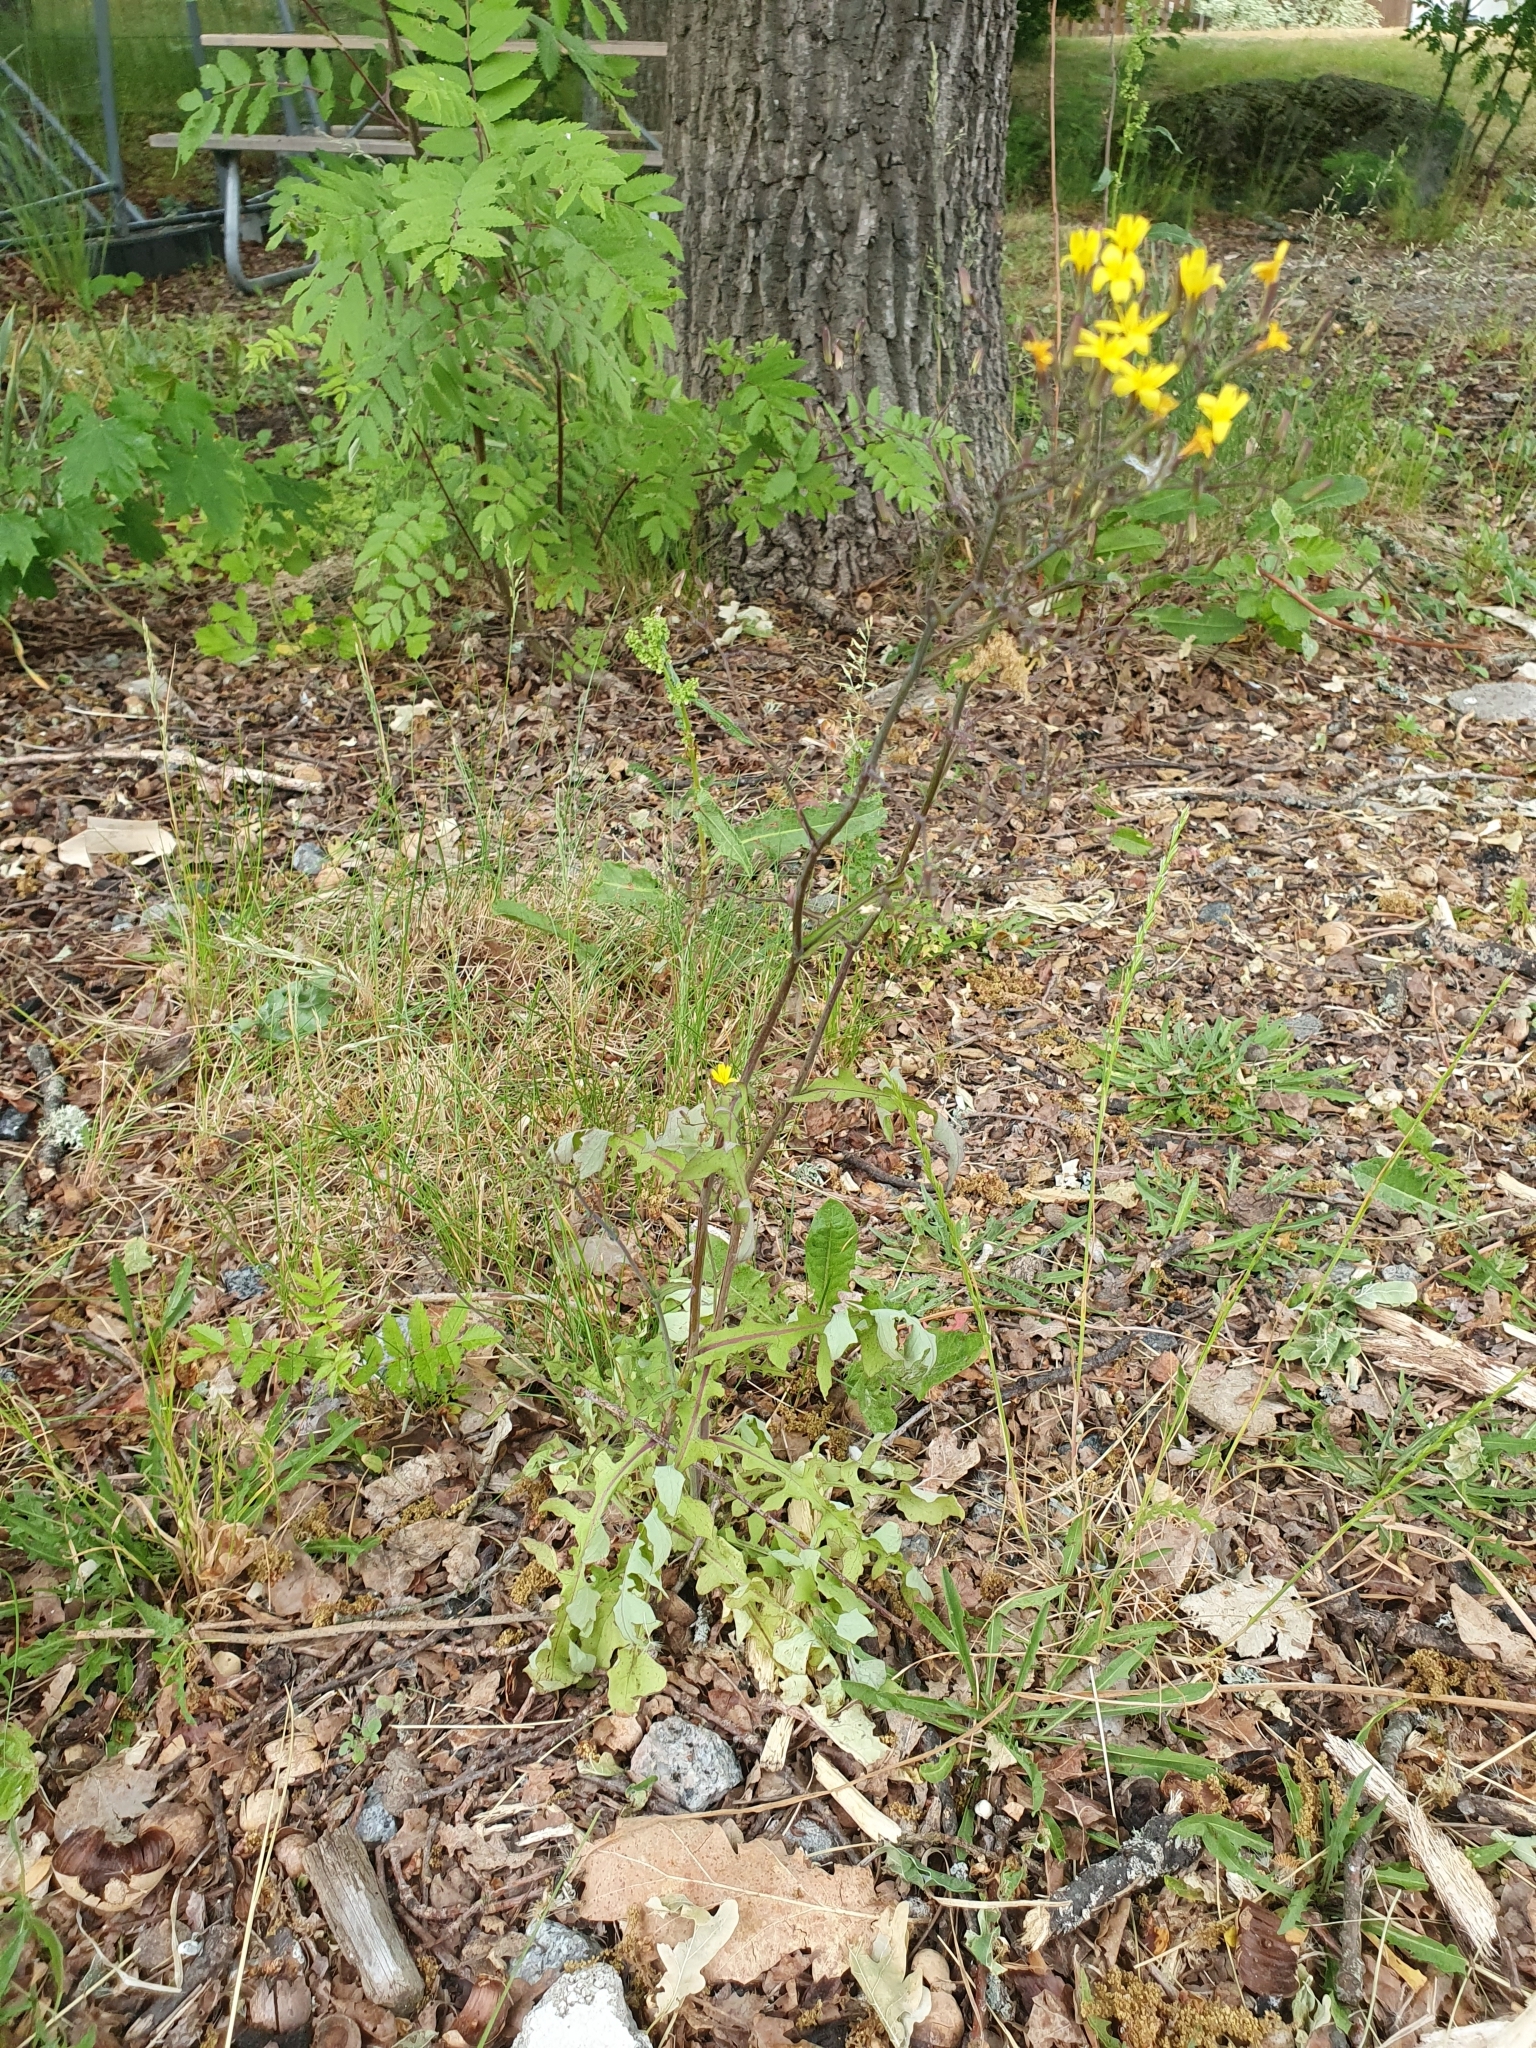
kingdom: Plantae
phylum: Tracheophyta
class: Magnoliopsida
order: Asterales
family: Asteraceae
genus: Mycelis
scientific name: Mycelis muralis
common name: Wall lettuce
